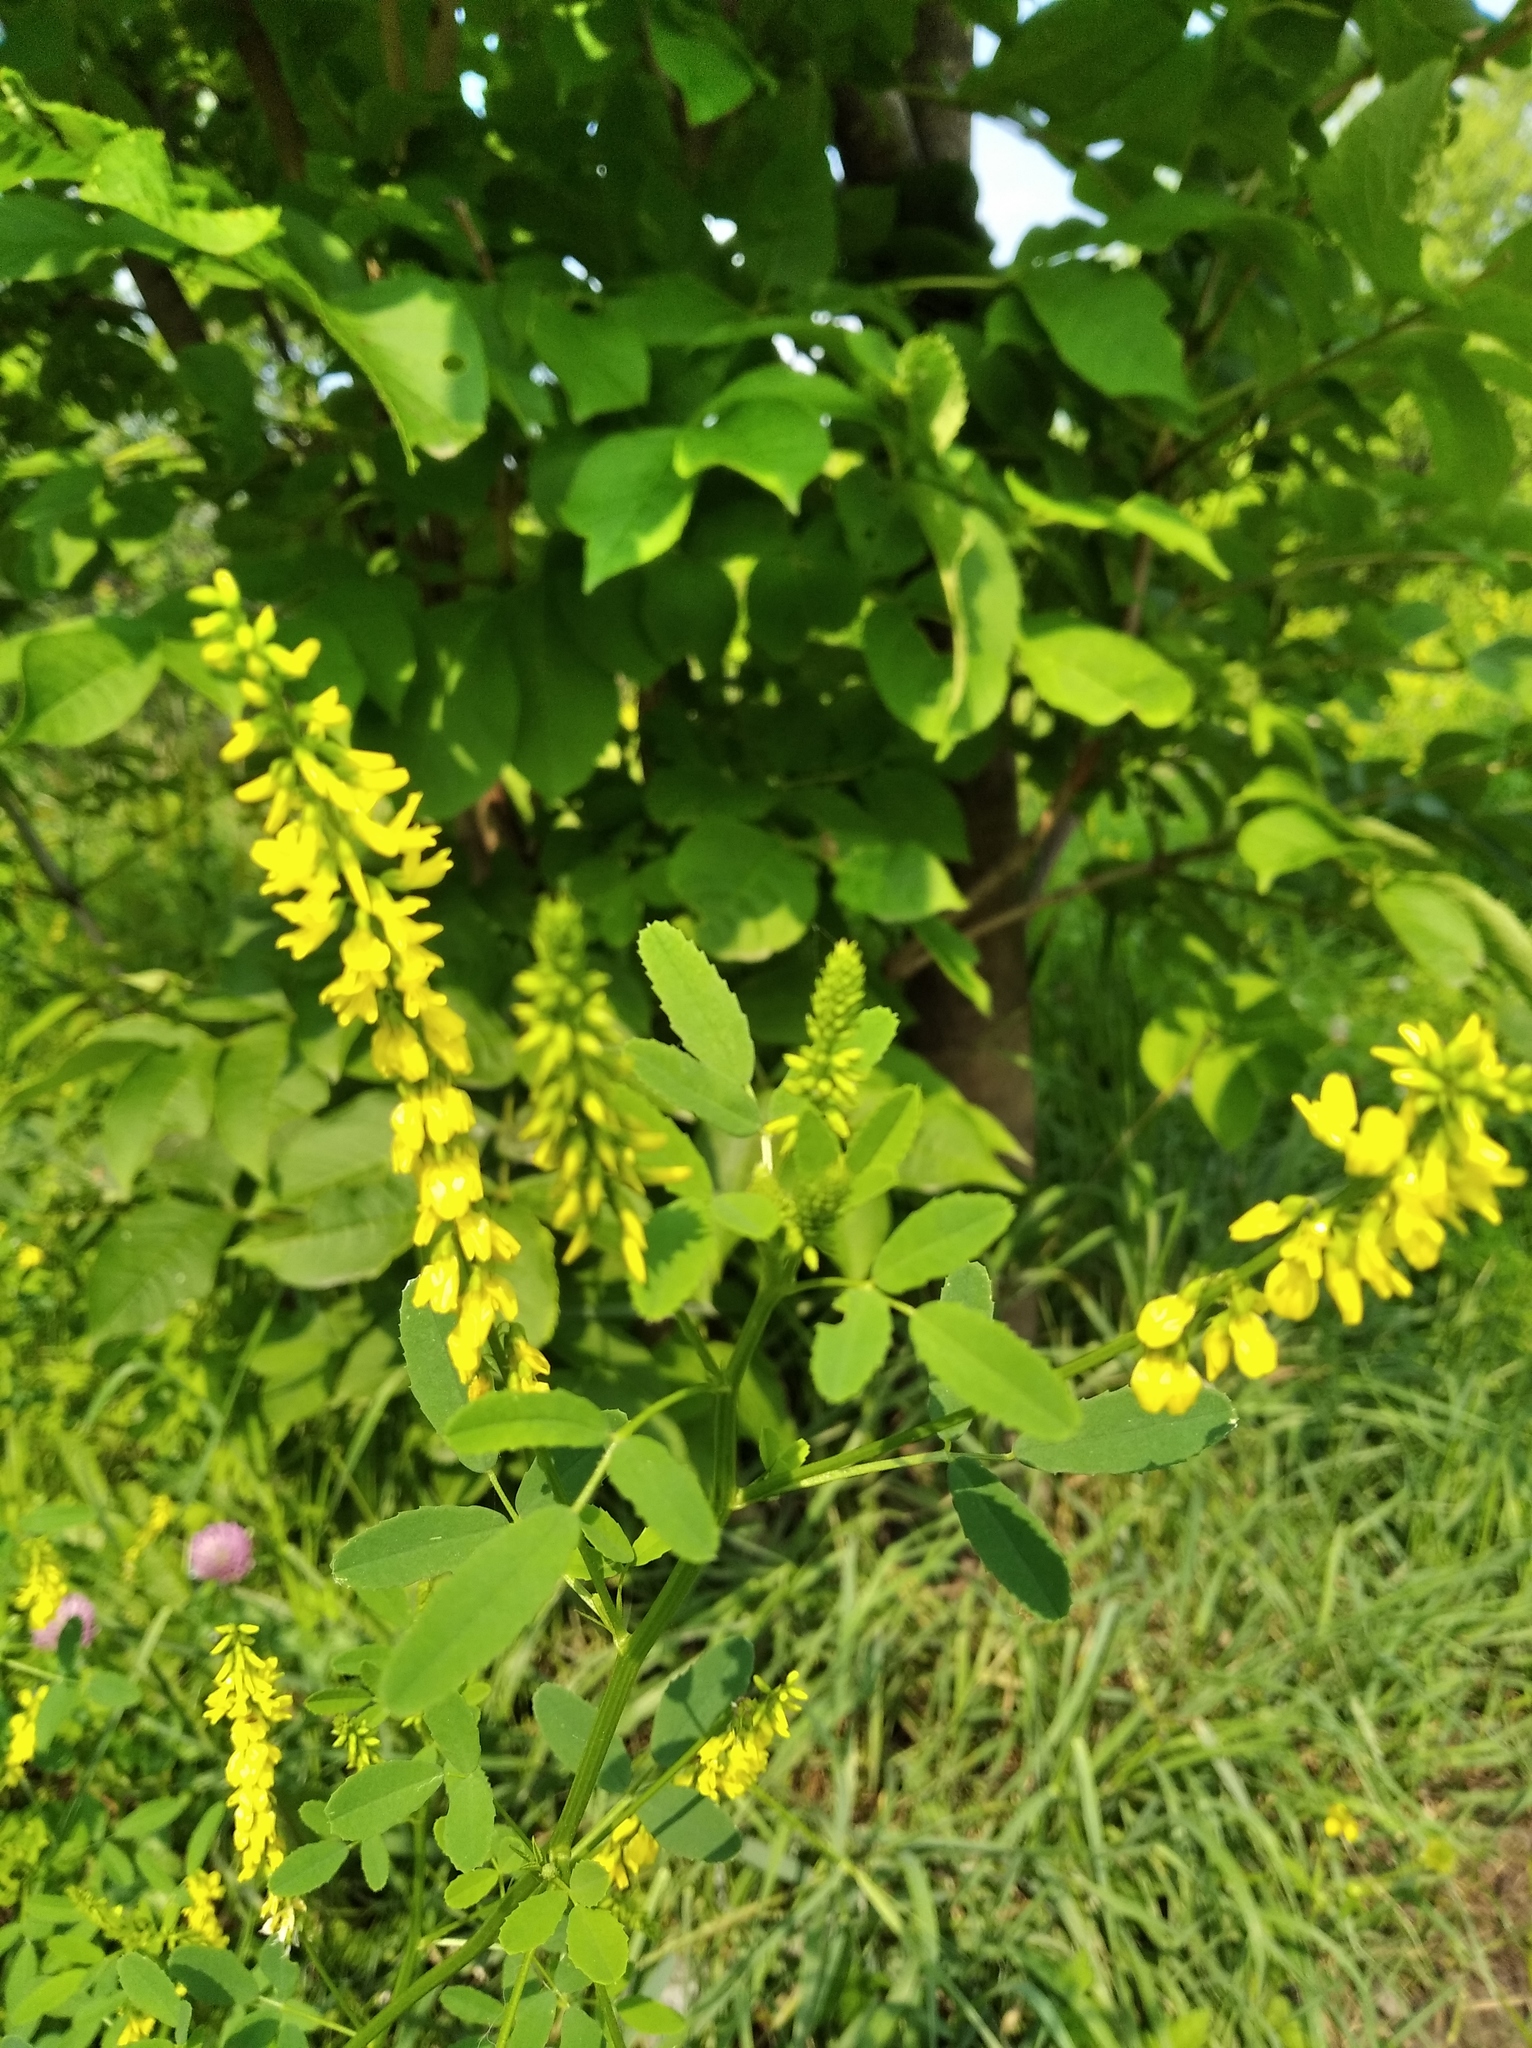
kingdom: Plantae
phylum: Tracheophyta
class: Magnoliopsida
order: Fabales
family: Fabaceae
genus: Melilotus
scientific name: Melilotus officinalis
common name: Sweetclover
